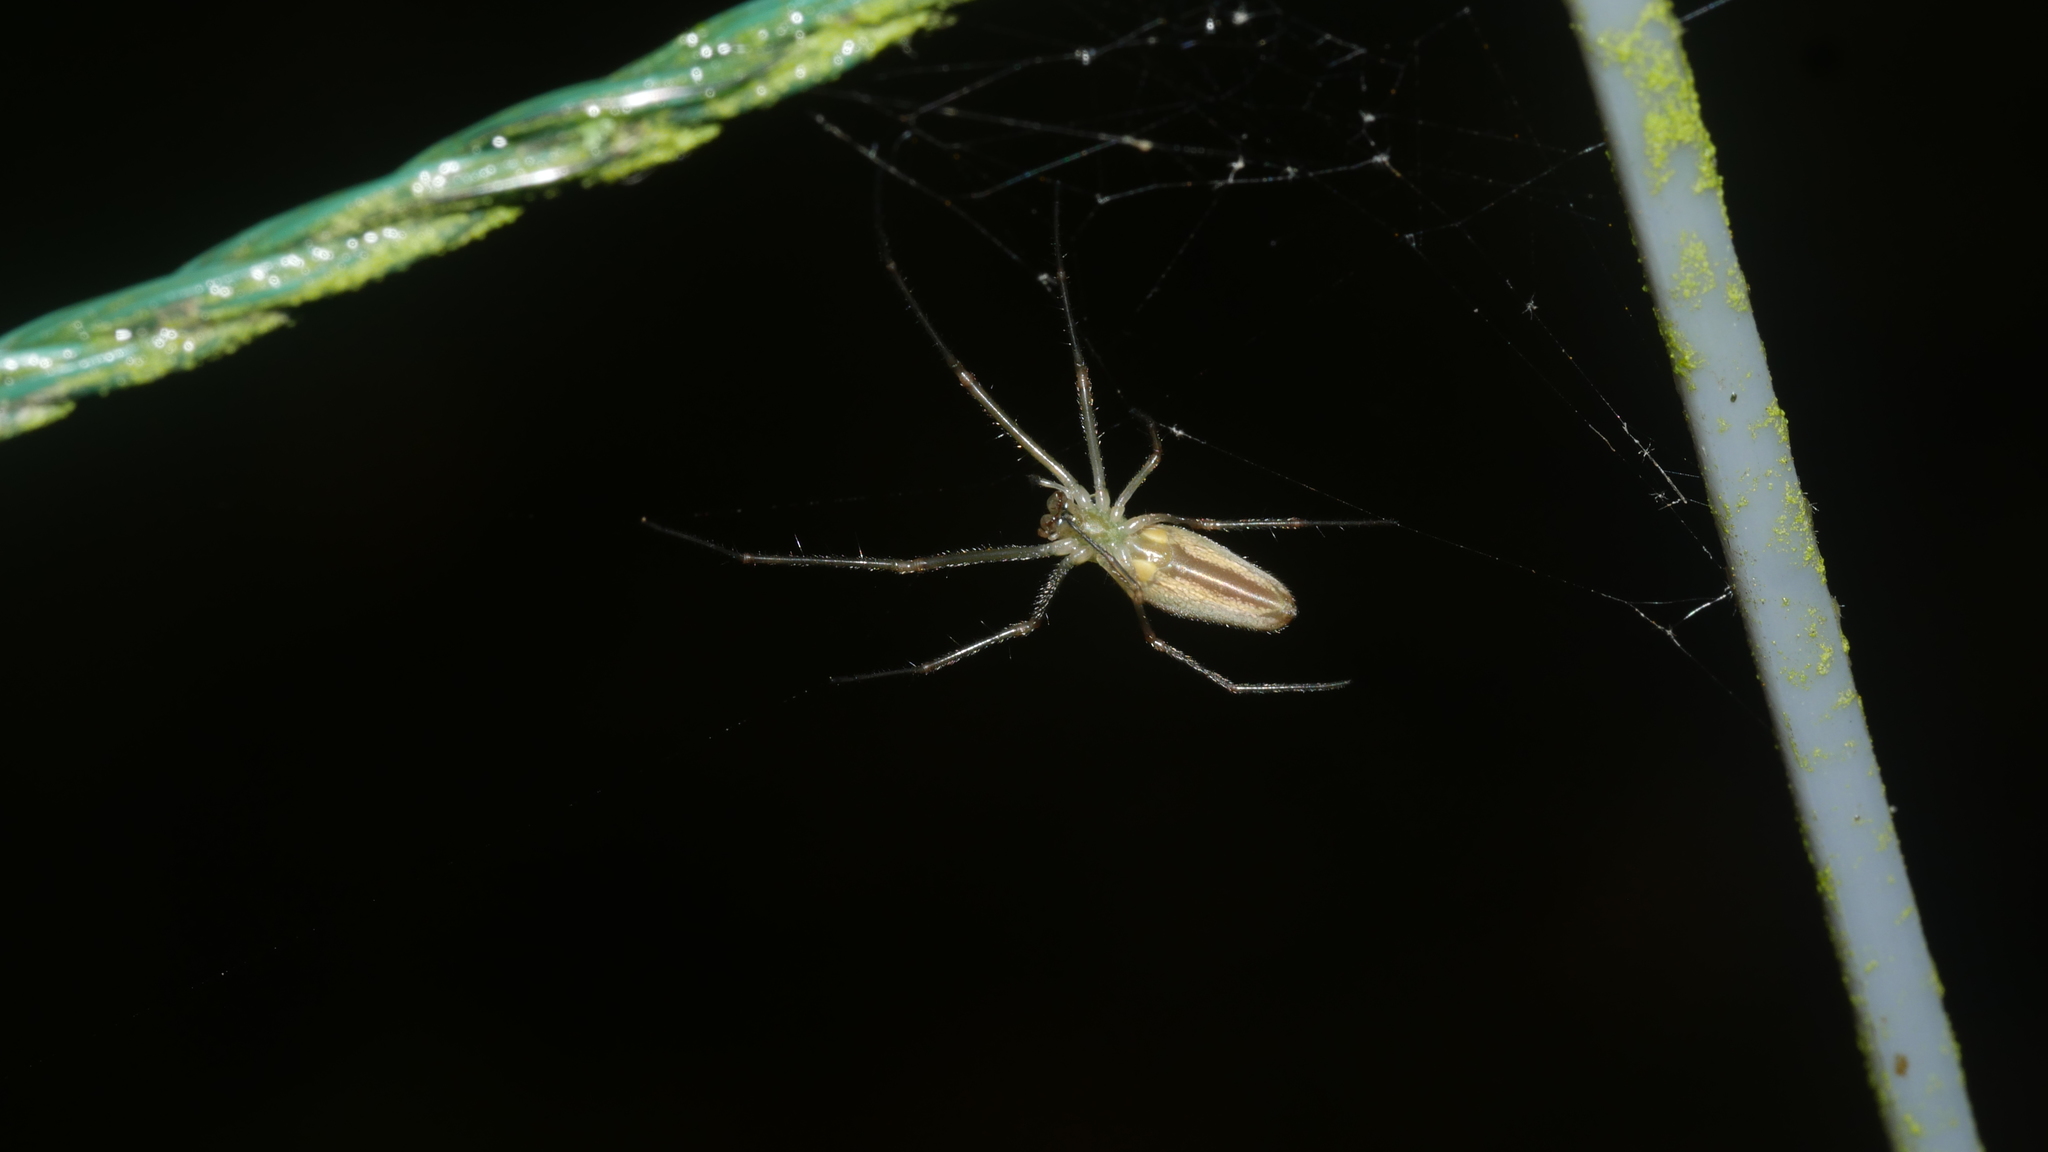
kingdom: Animalia
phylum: Arthropoda
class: Arachnida
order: Araneae
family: Tetragnathidae
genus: Tetragnatha
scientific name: Tetragnatha
